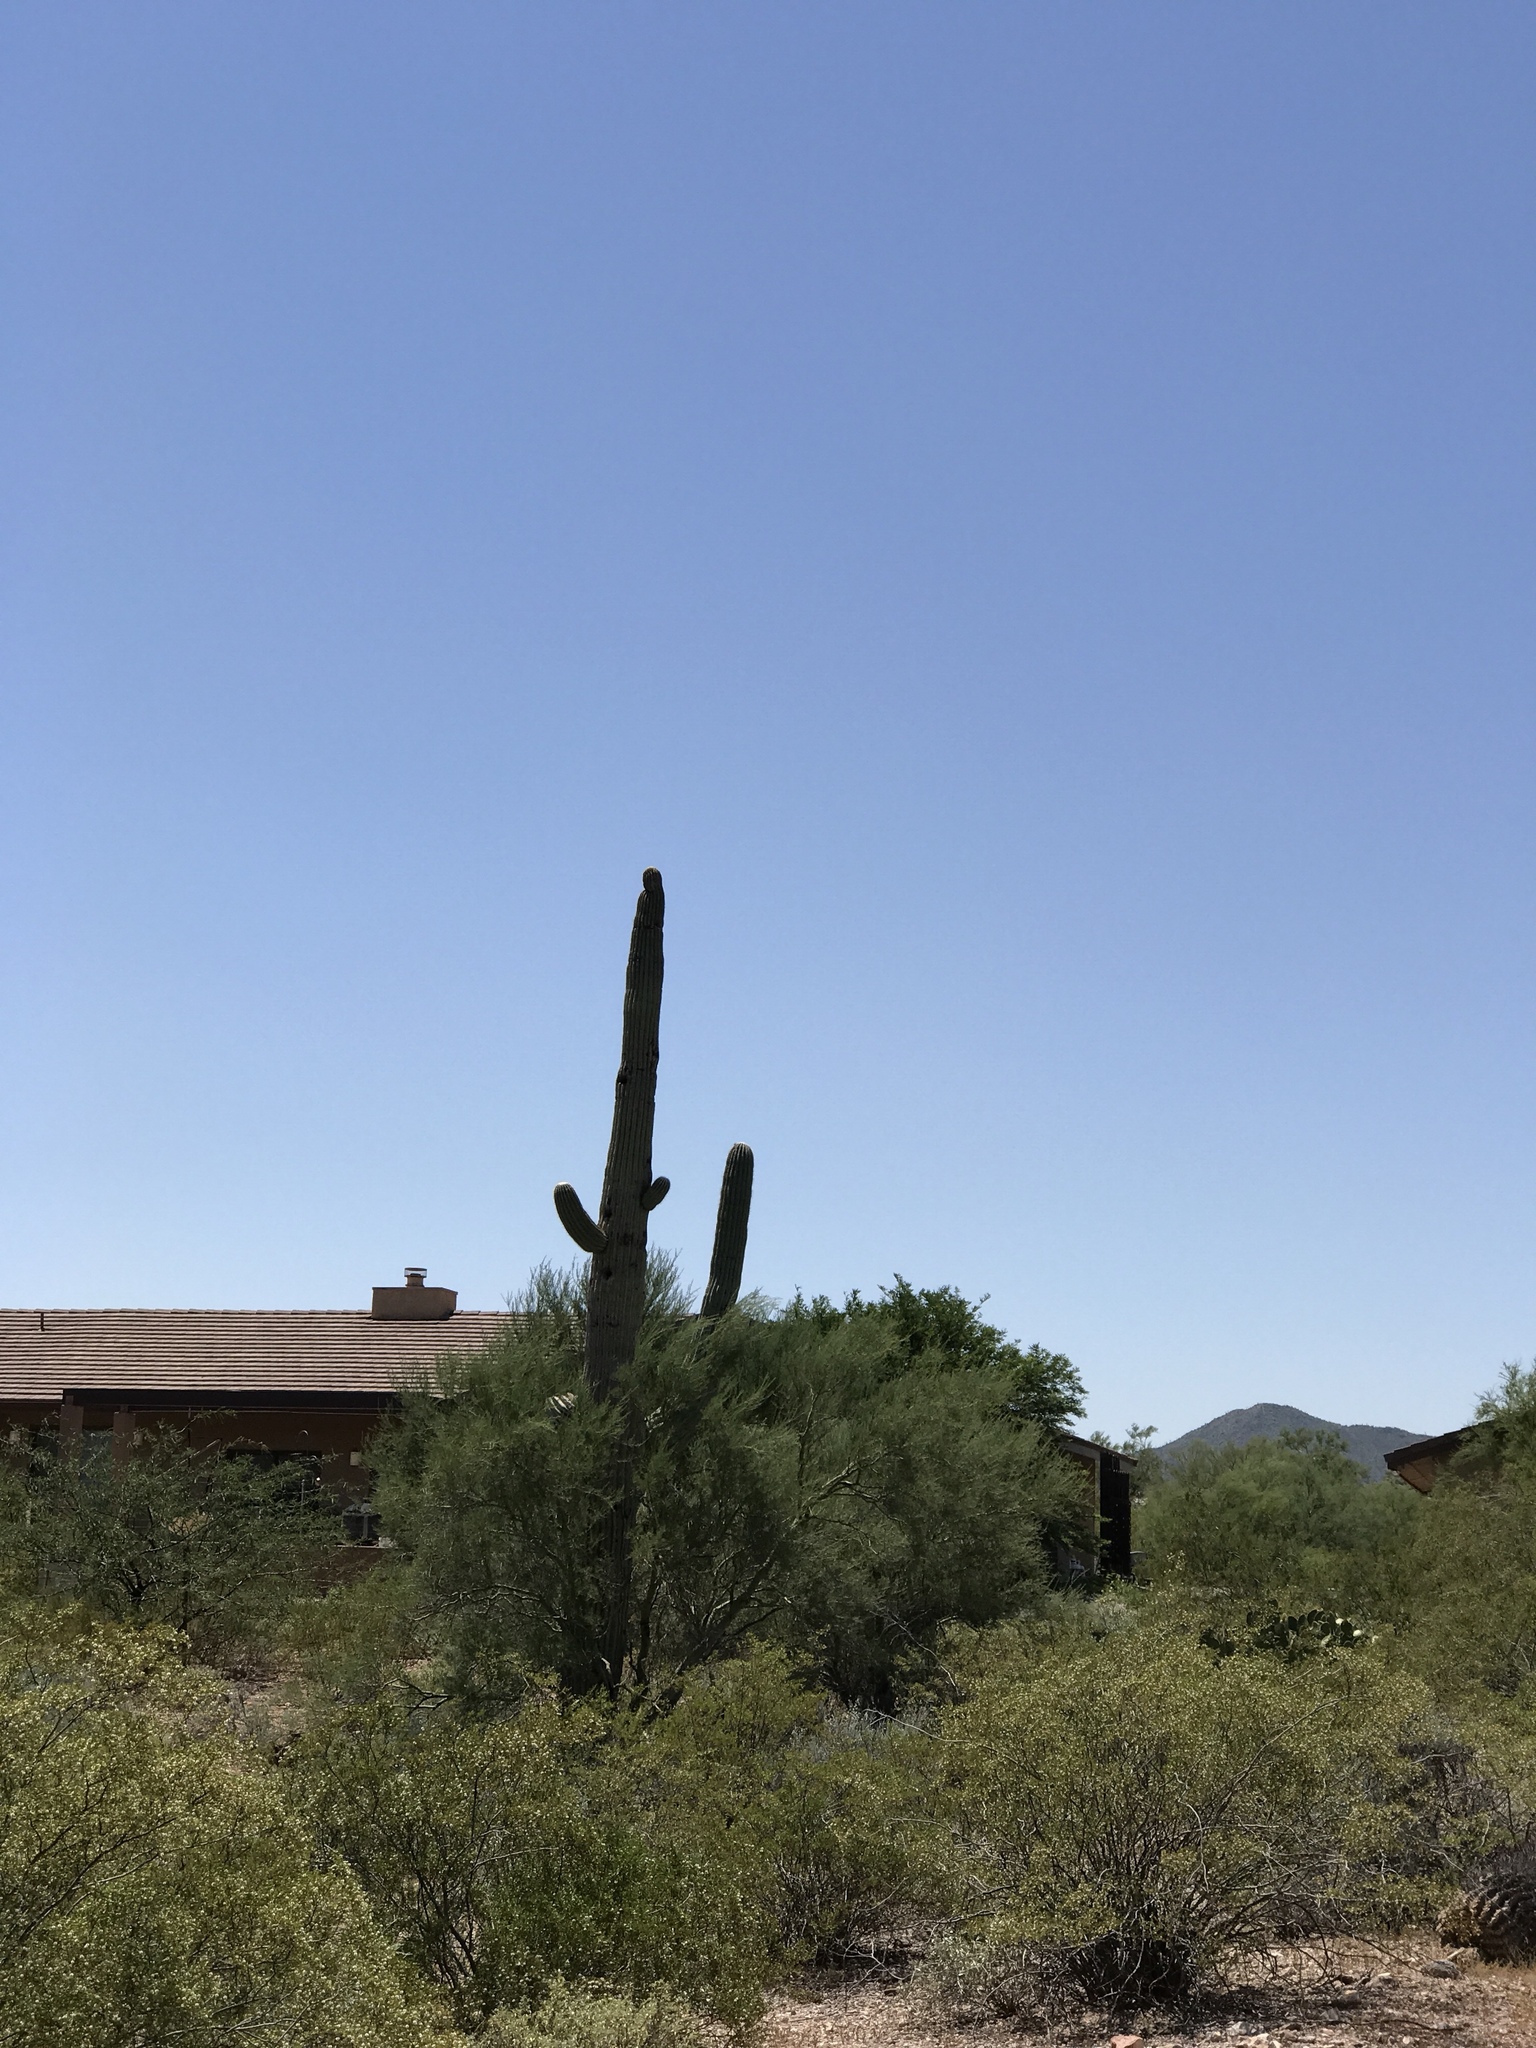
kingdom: Plantae
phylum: Tracheophyta
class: Magnoliopsida
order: Caryophyllales
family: Cactaceae
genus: Carnegiea
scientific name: Carnegiea gigantea
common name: Saguaro
